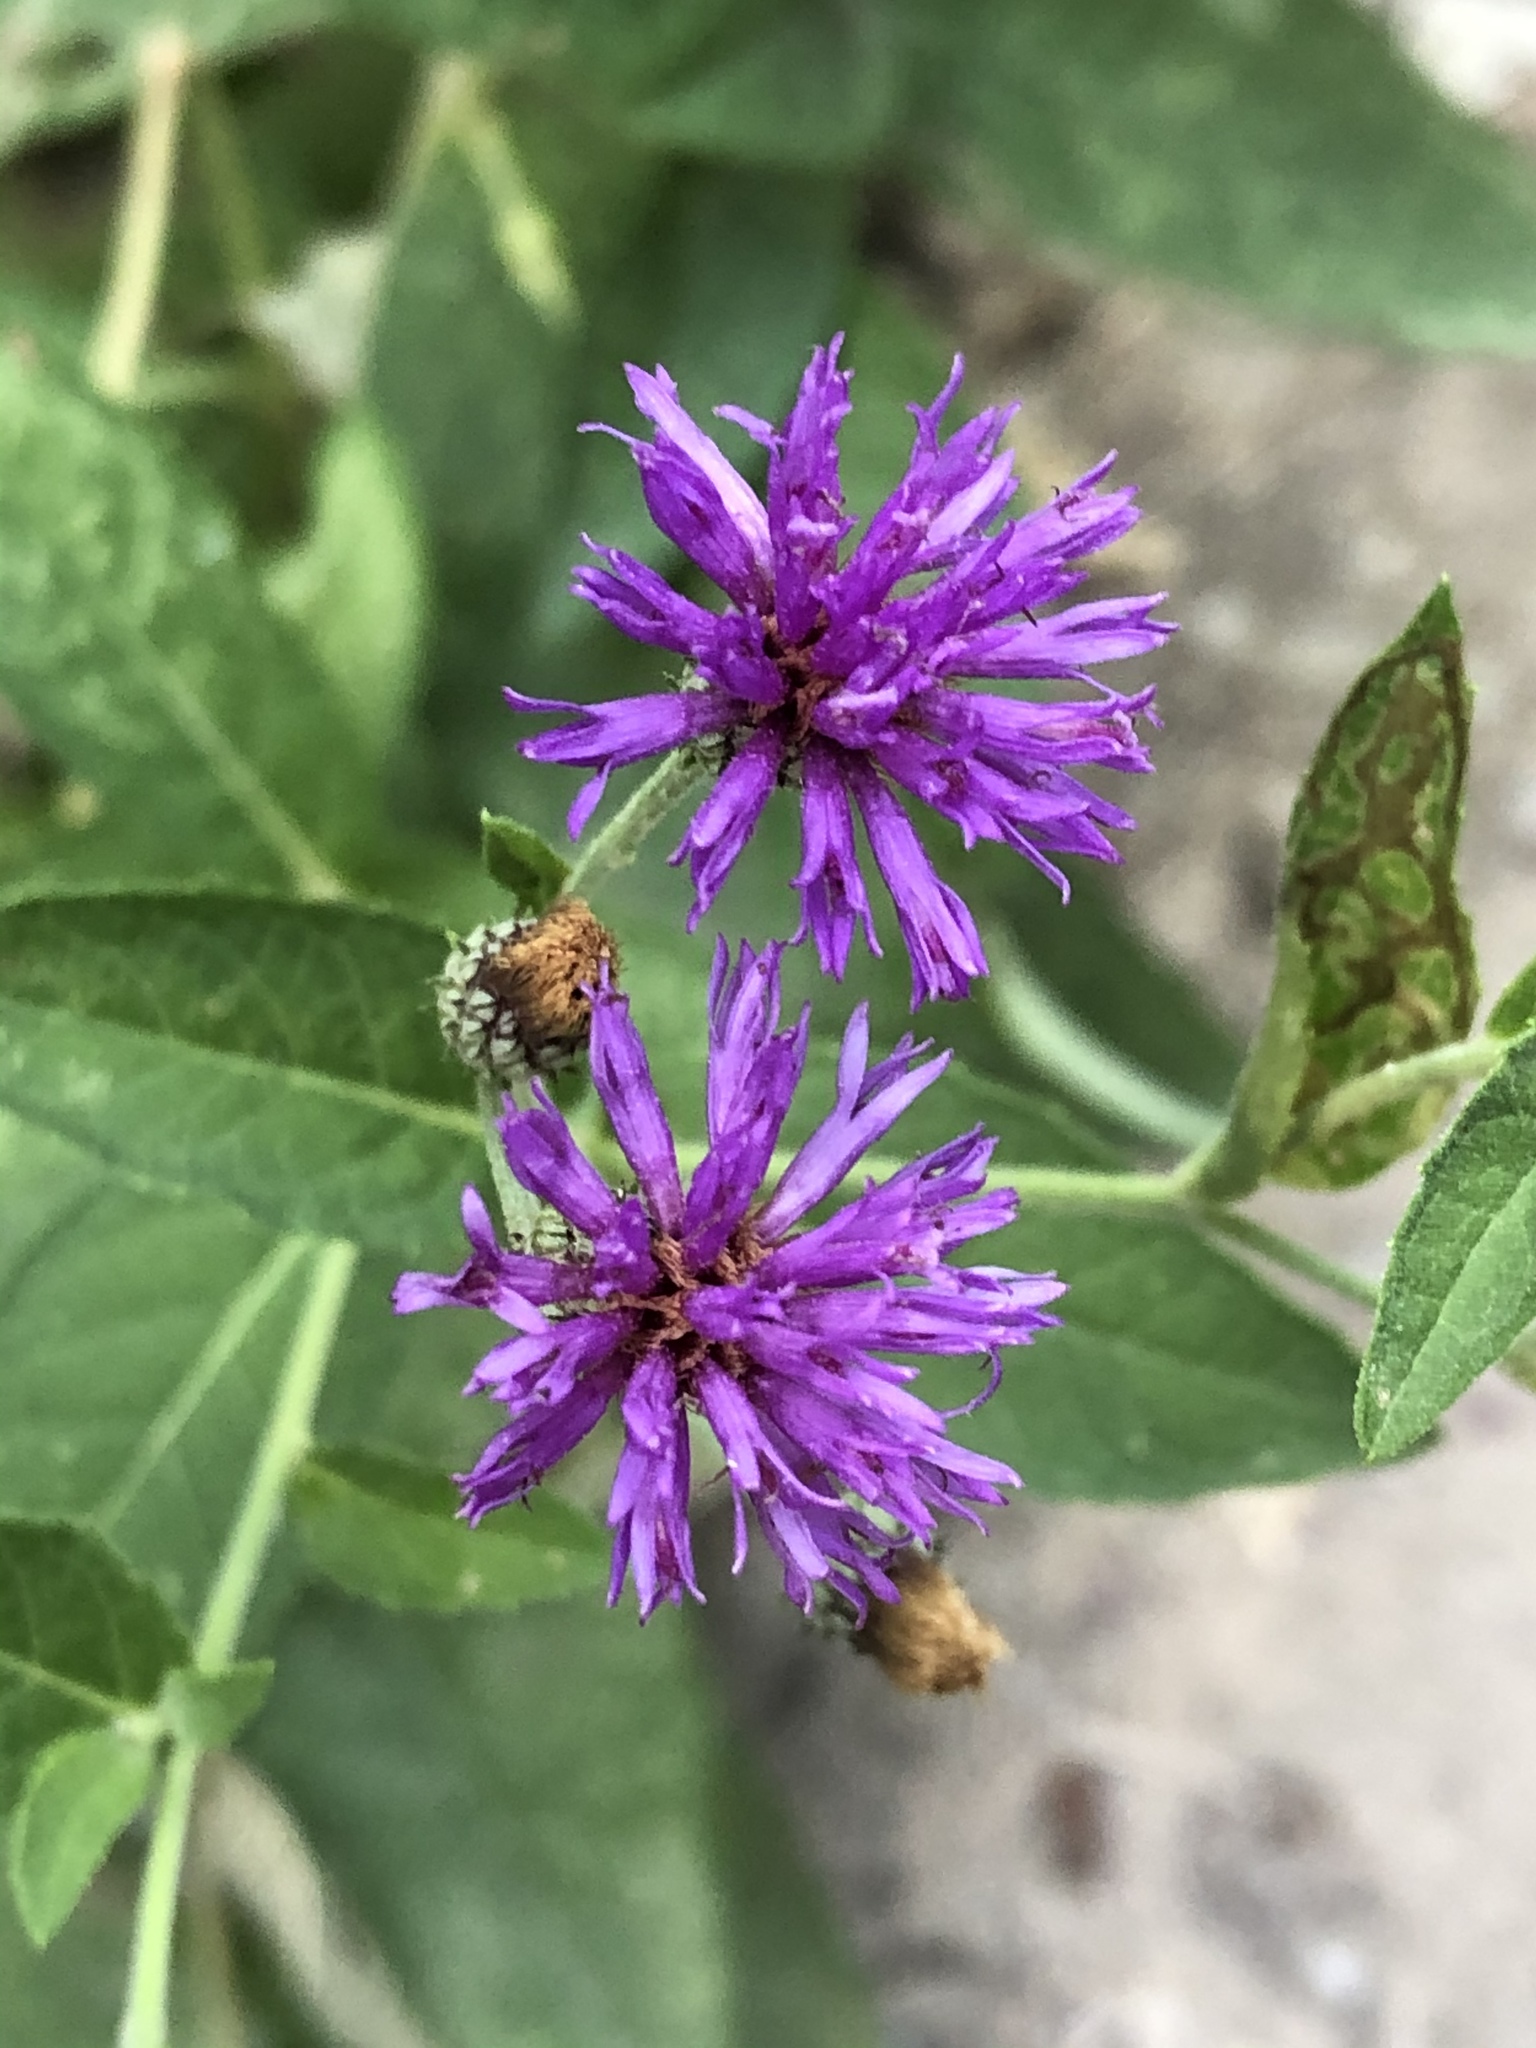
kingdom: Plantae
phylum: Tracheophyta
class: Magnoliopsida
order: Asterales
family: Asteraceae
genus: Vernonia
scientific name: Vernonia baldwinii
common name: Western ironweed
